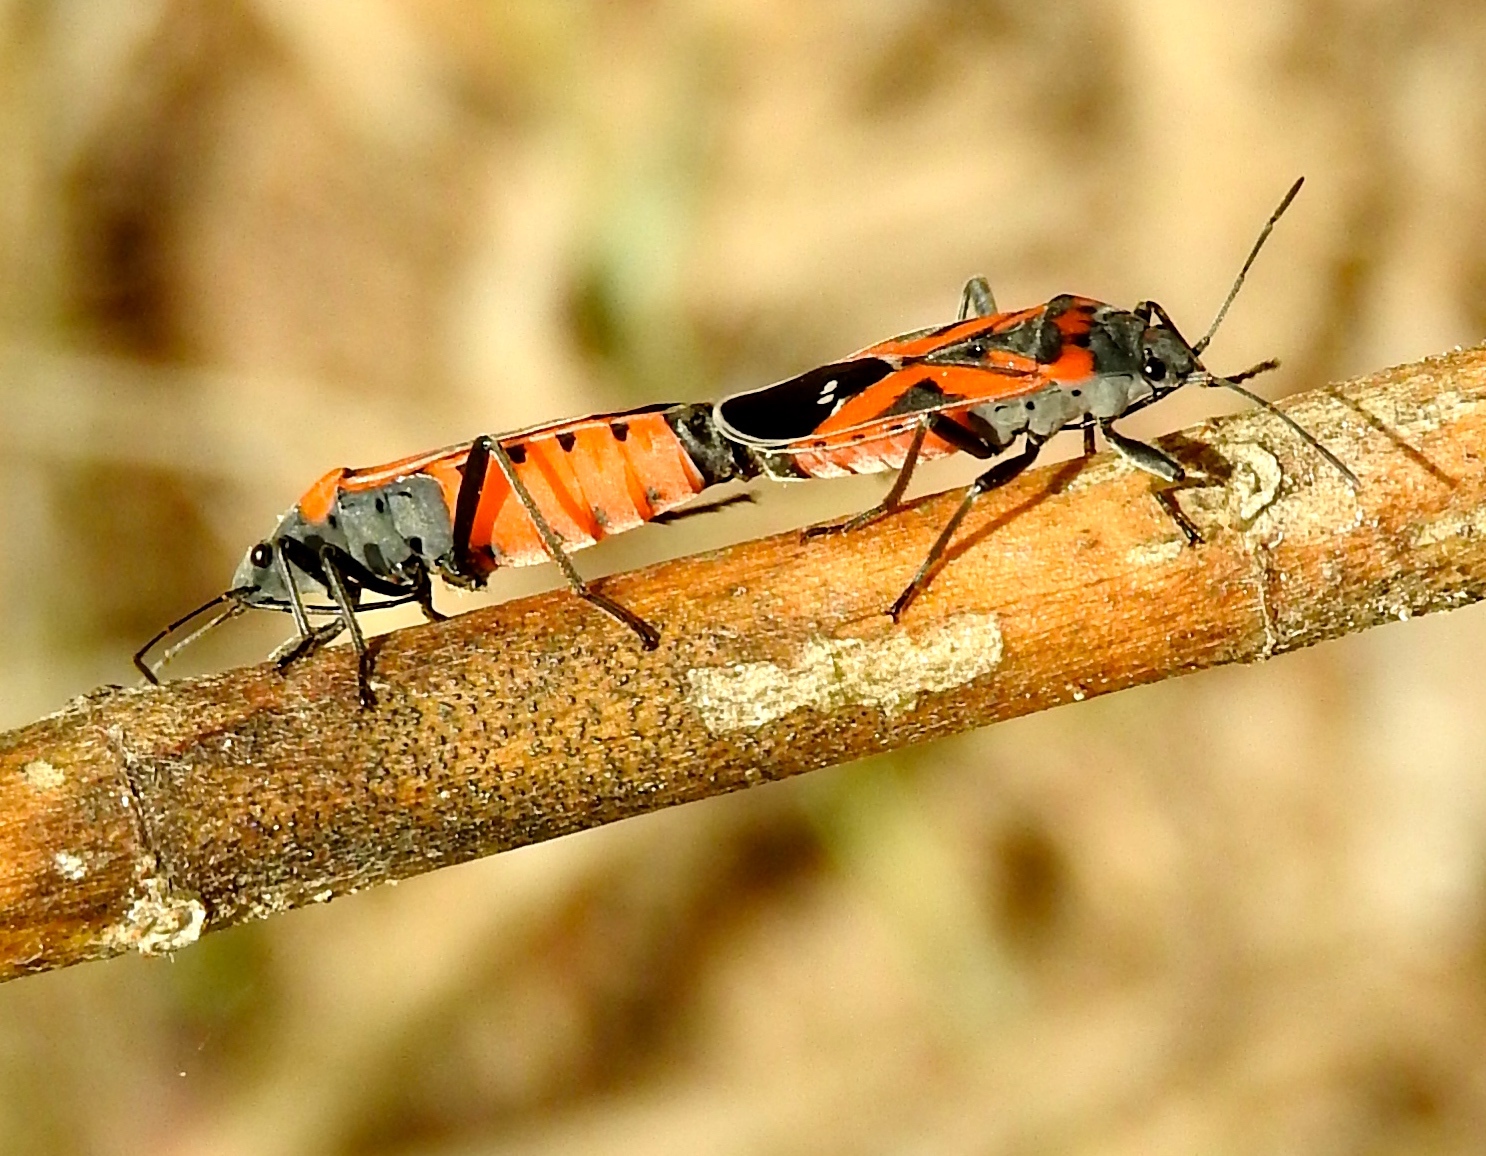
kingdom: Animalia
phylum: Arthropoda
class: Insecta
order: Hemiptera
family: Lygaeidae
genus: Lygaeus
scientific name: Lygaeus reclivatus
